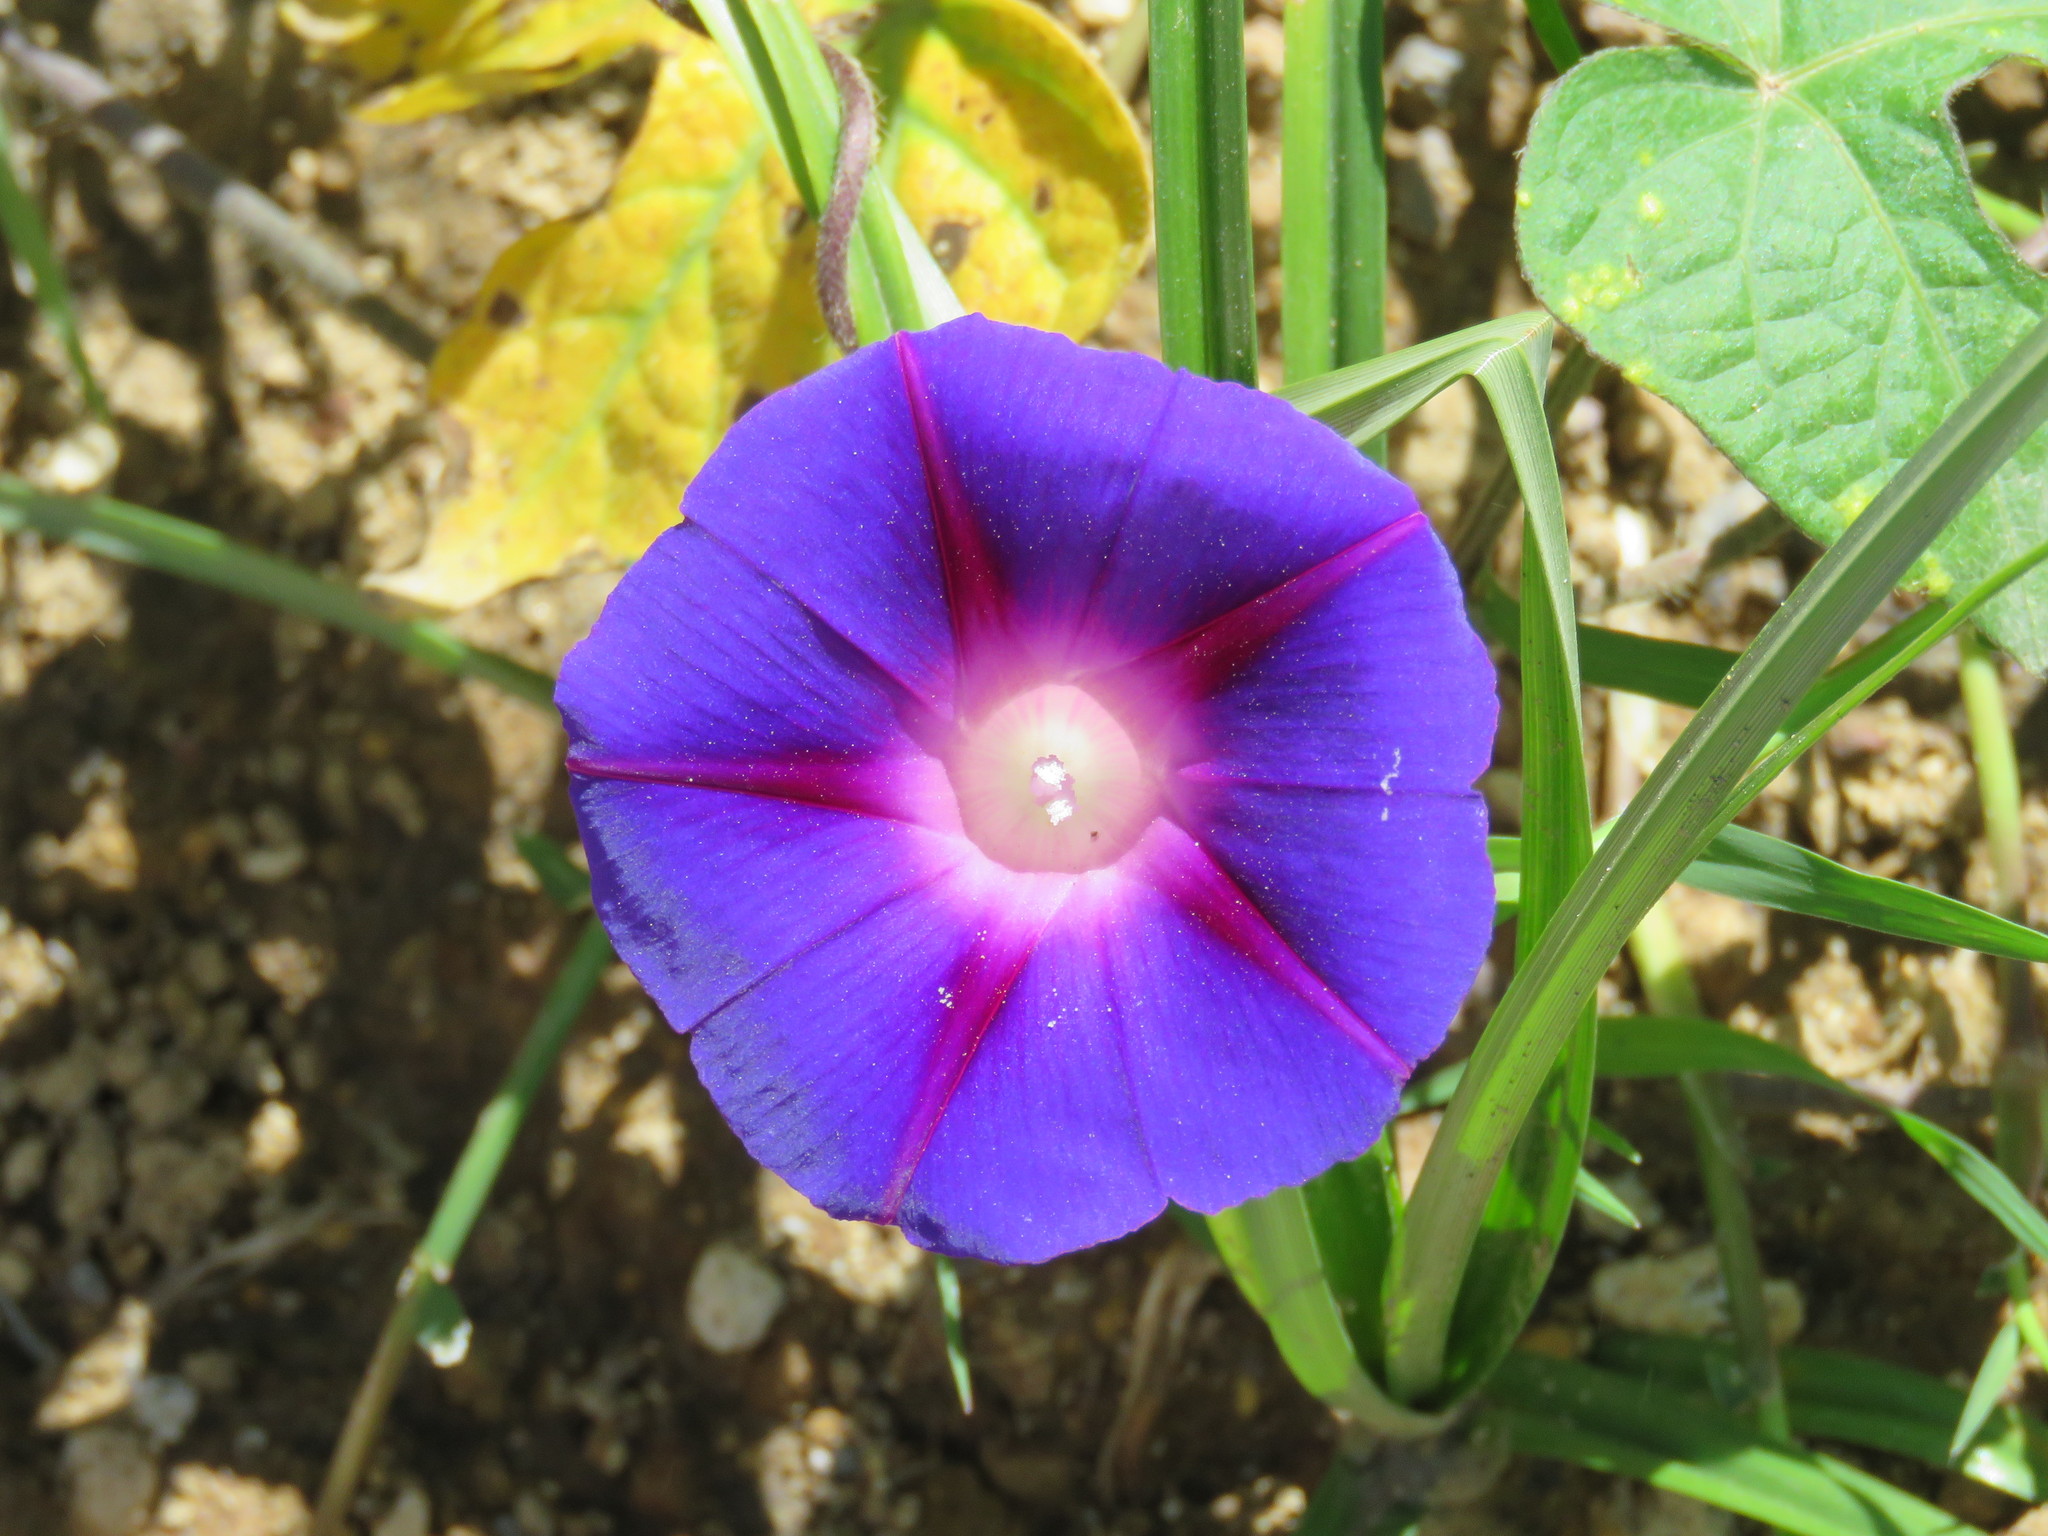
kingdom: Plantae
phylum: Tracheophyta
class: Magnoliopsida
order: Solanales
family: Convolvulaceae
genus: Ipomoea
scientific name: Ipomoea purpurea
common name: Common morning-glory
